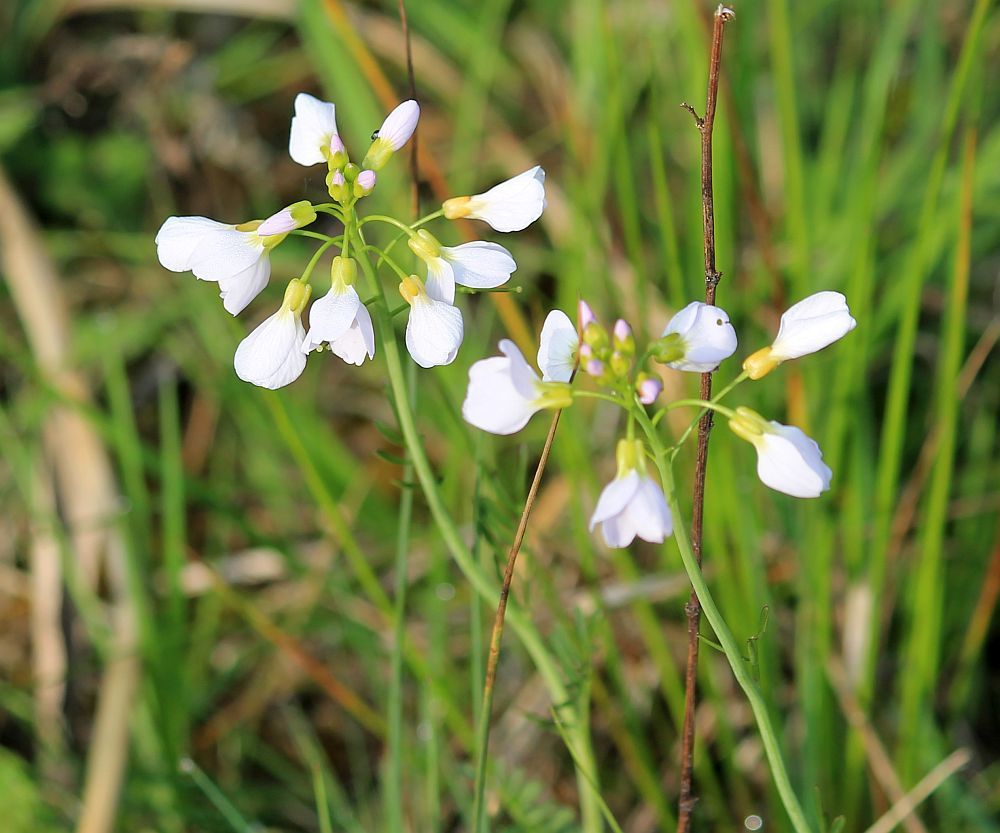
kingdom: Plantae
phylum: Tracheophyta
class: Magnoliopsida
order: Brassicales
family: Brassicaceae
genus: Cardamine
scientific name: Cardamine pratensis
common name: Cuckoo flower
